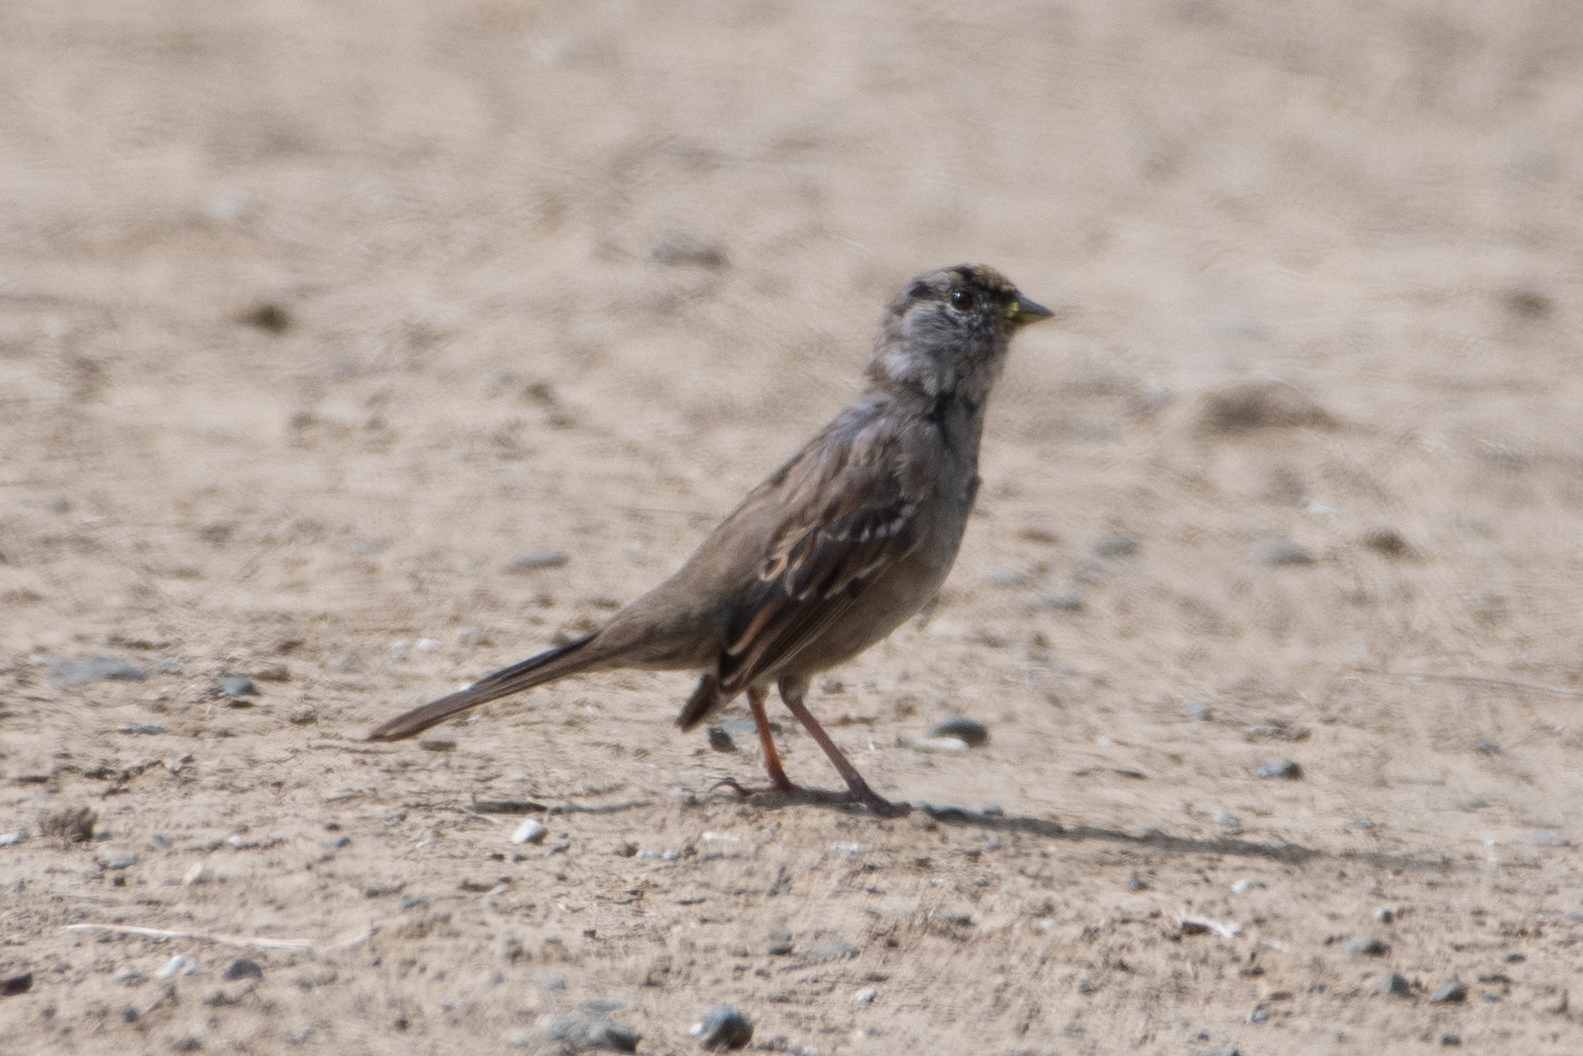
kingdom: Animalia
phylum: Chordata
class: Aves
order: Passeriformes
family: Passerellidae
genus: Zonotrichia
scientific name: Zonotrichia atricapilla
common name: Golden-crowned sparrow
